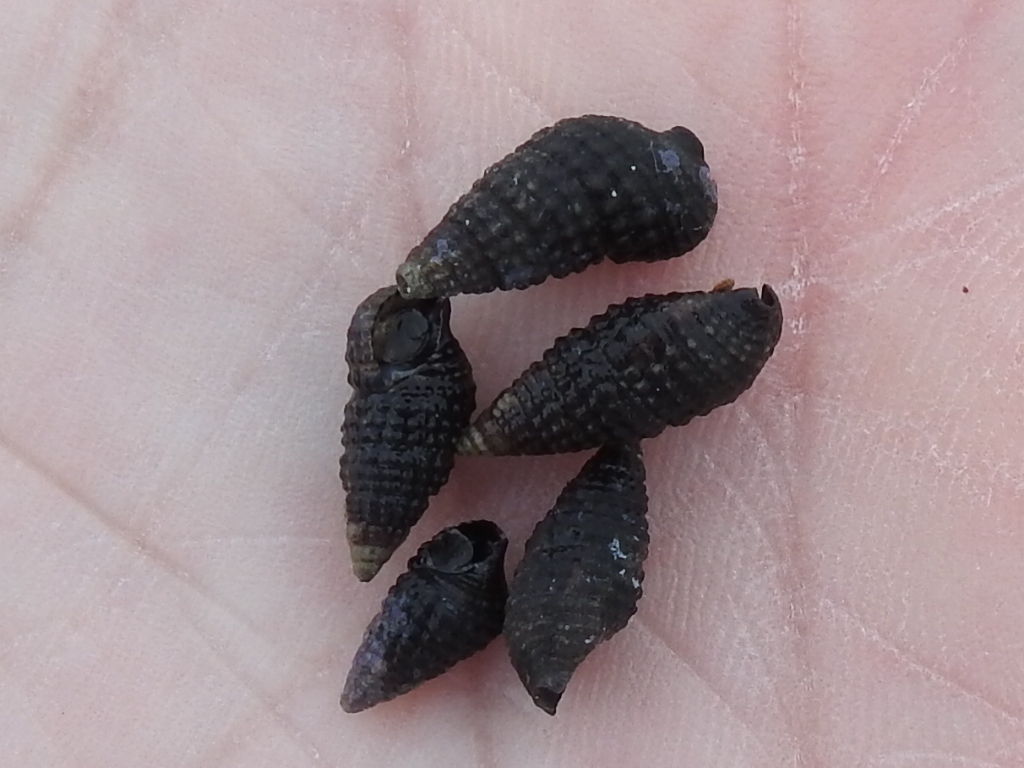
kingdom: Animalia
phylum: Mollusca
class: Gastropoda
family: Cerithiidae
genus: Cerithium
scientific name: Cerithium lutosum
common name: Dwarf atlantic cerith
